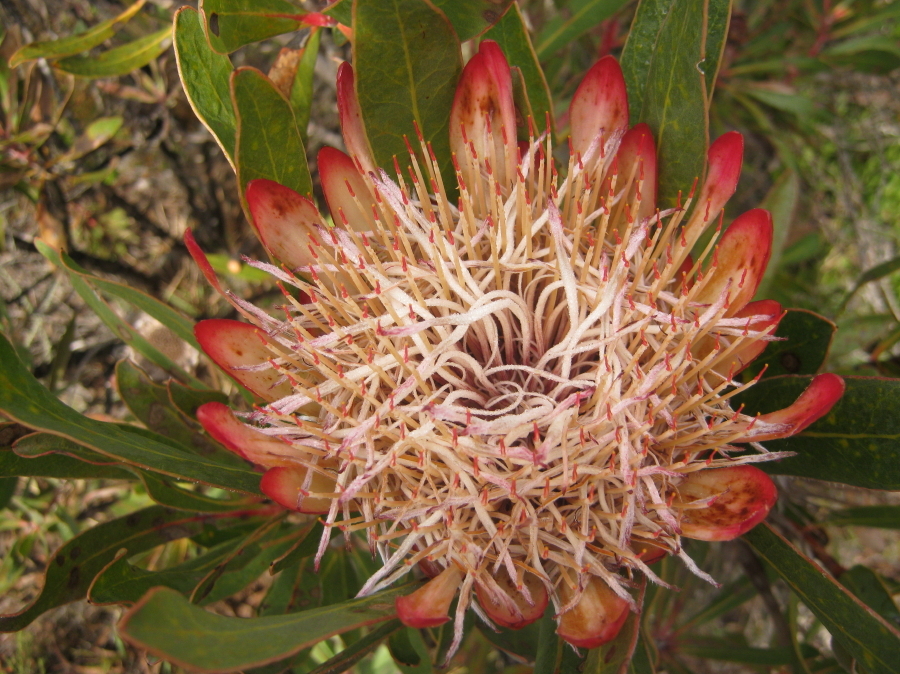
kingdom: Plantae
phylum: Tracheophyta
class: Magnoliopsida
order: Proteales
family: Proteaceae
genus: Protea
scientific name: Protea susannae
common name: Foetid-leaf sugarbush
